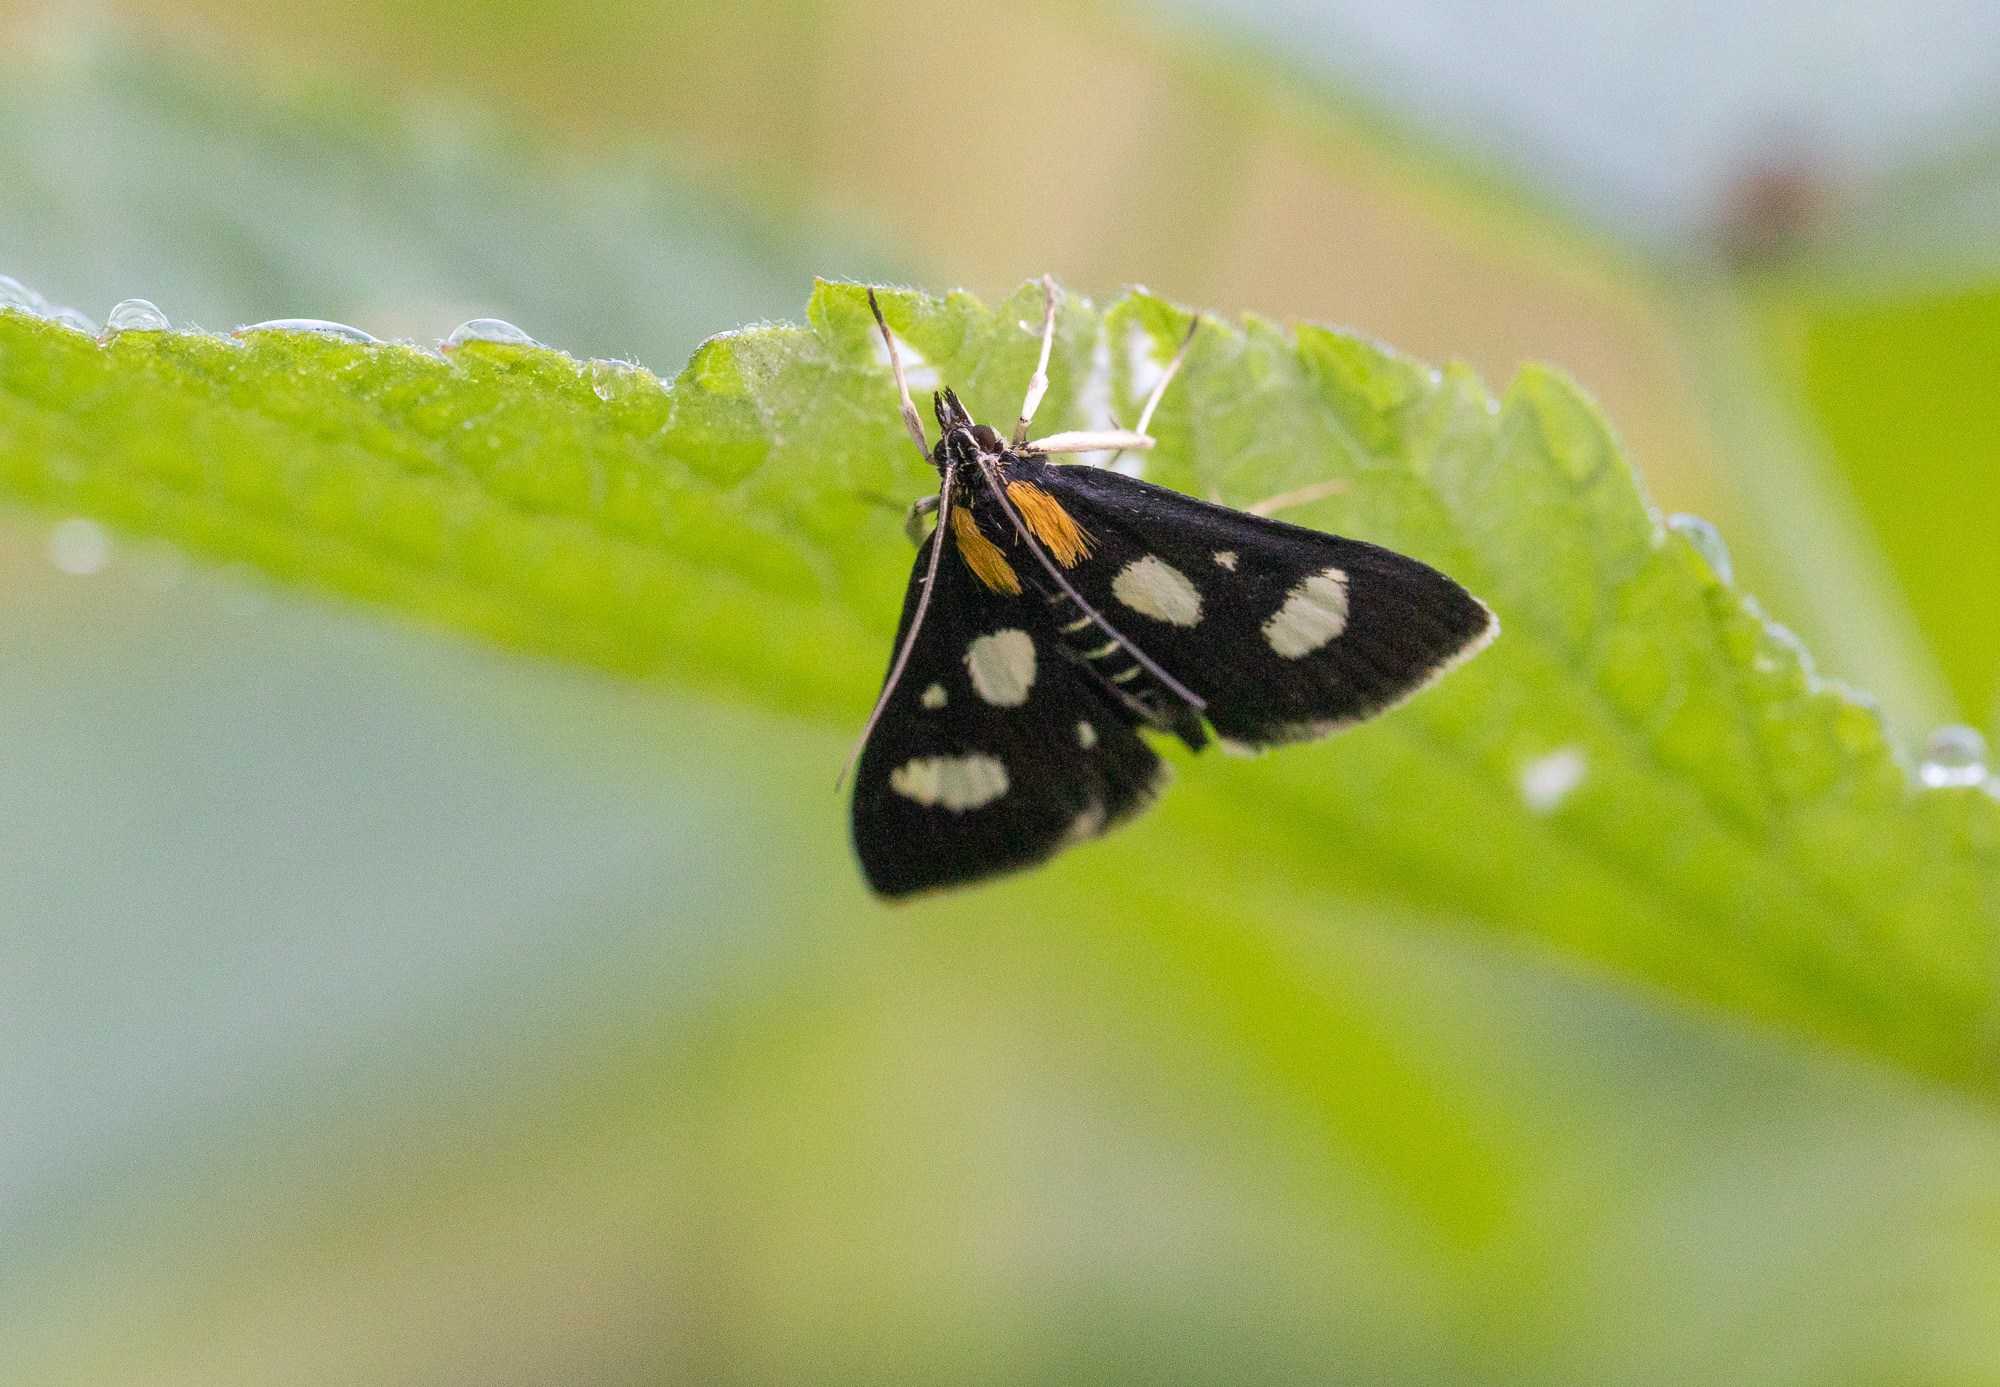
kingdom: Animalia
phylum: Arthropoda
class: Insecta
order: Lepidoptera
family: Crambidae
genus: Anania
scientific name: Anania funebris
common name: White-spotted sable moth
